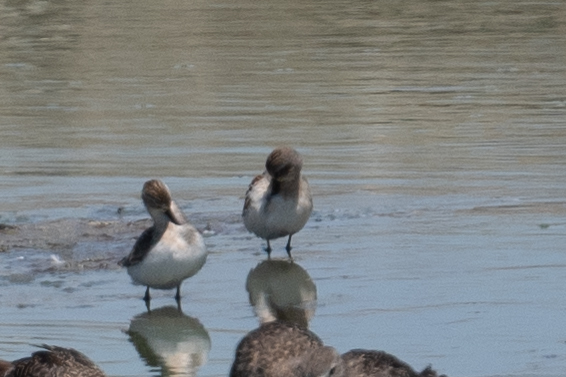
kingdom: Animalia
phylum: Chordata
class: Aves
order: Charadriiformes
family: Scolopacidae
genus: Calidris
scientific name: Calidris mauri
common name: Western sandpiper
